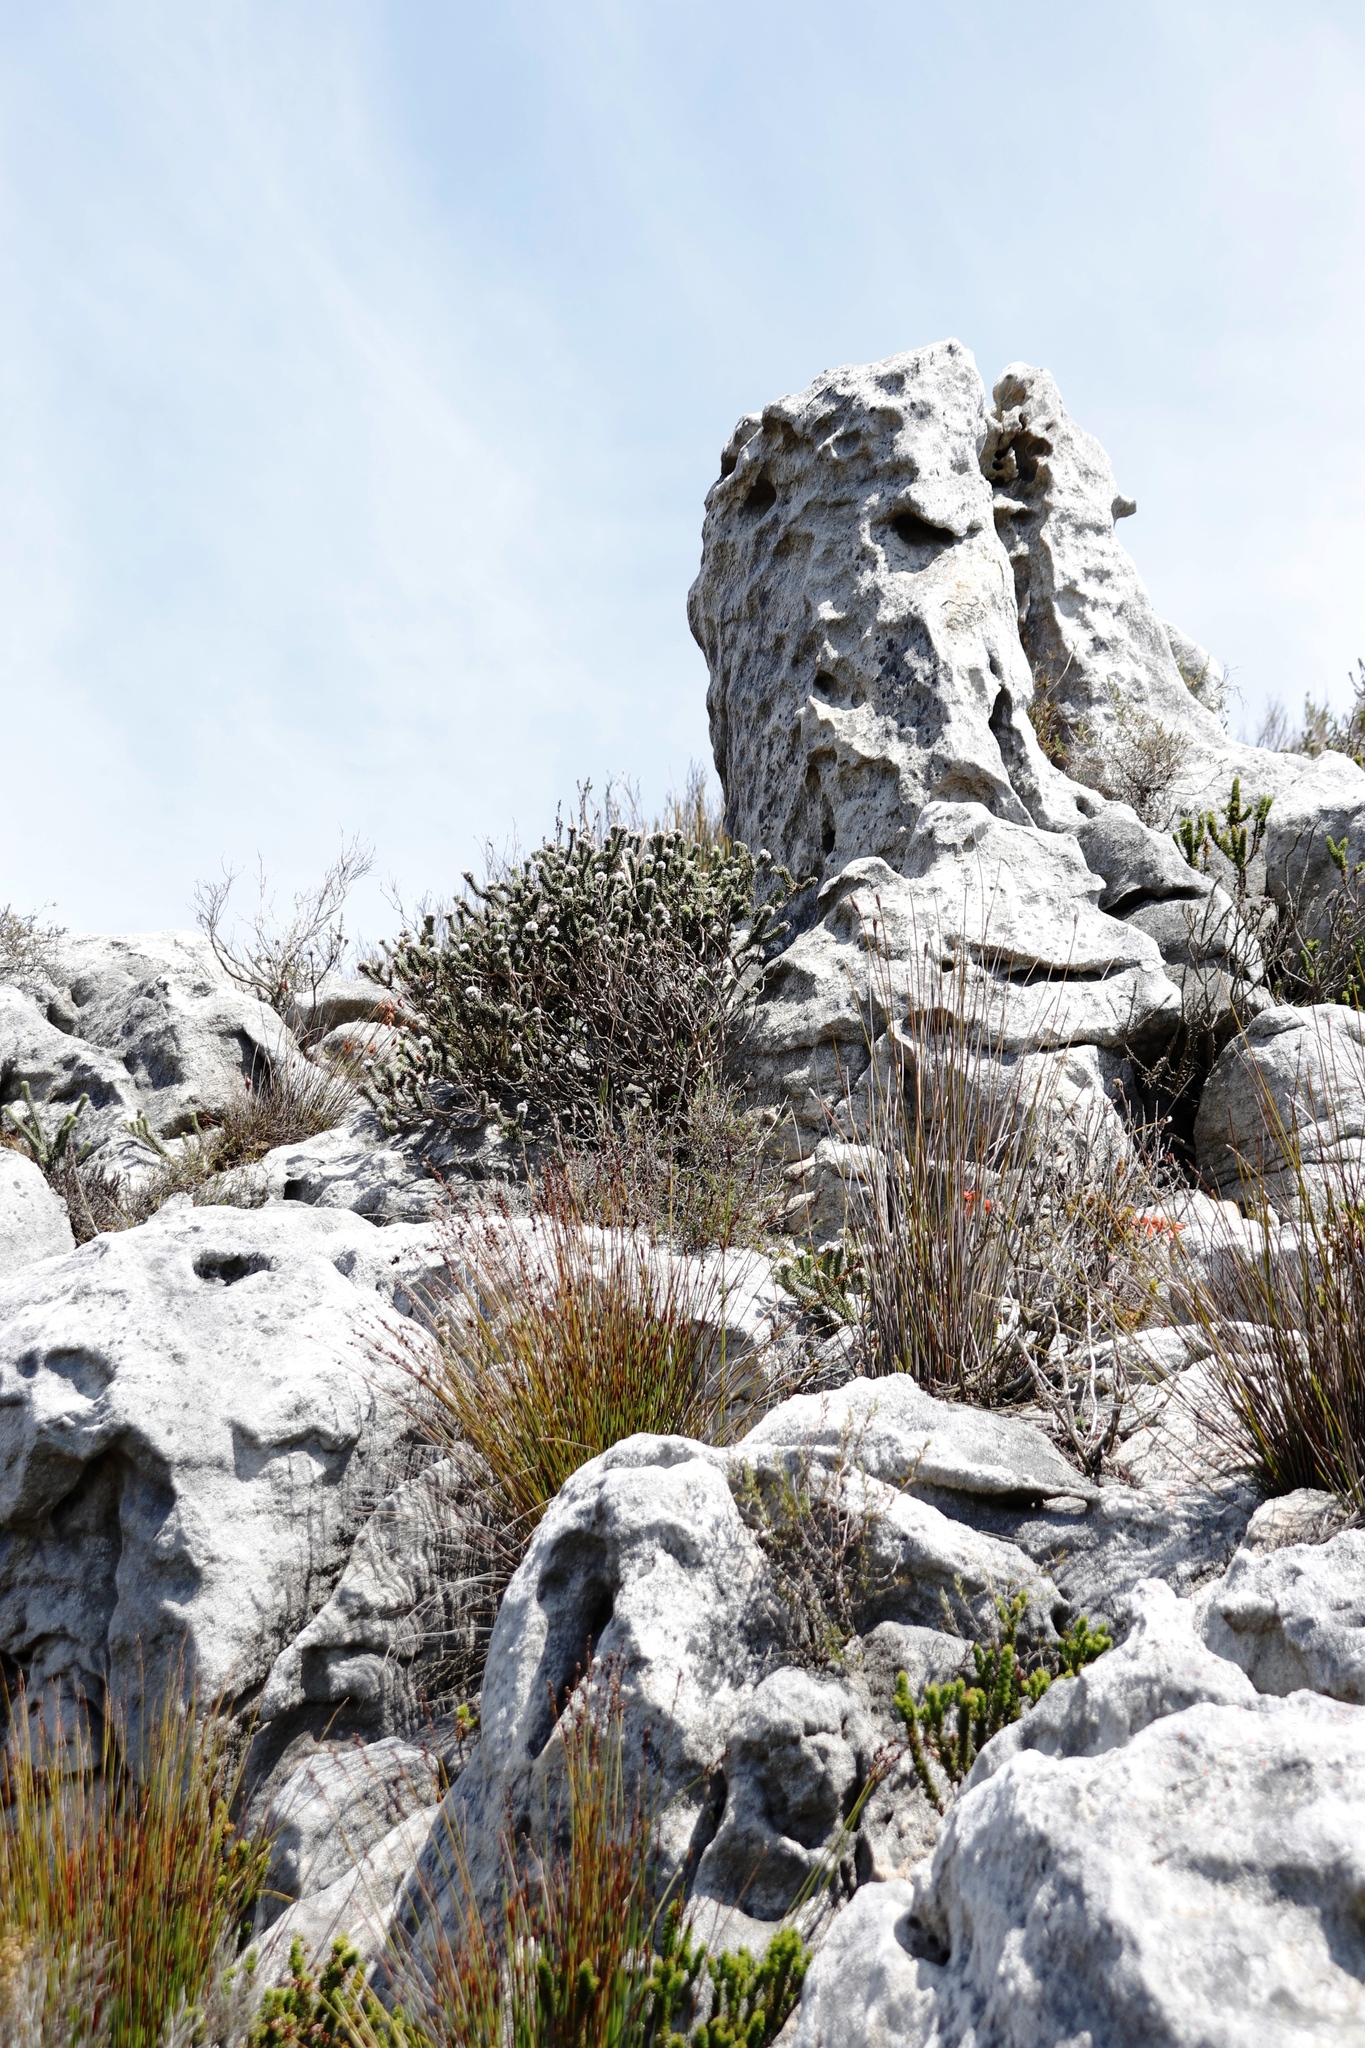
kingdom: Plantae
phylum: Tracheophyta
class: Magnoliopsida
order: Lamiales
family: Stilbaceae
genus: Kogelbergia
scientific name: Kogelbergia verticillata
